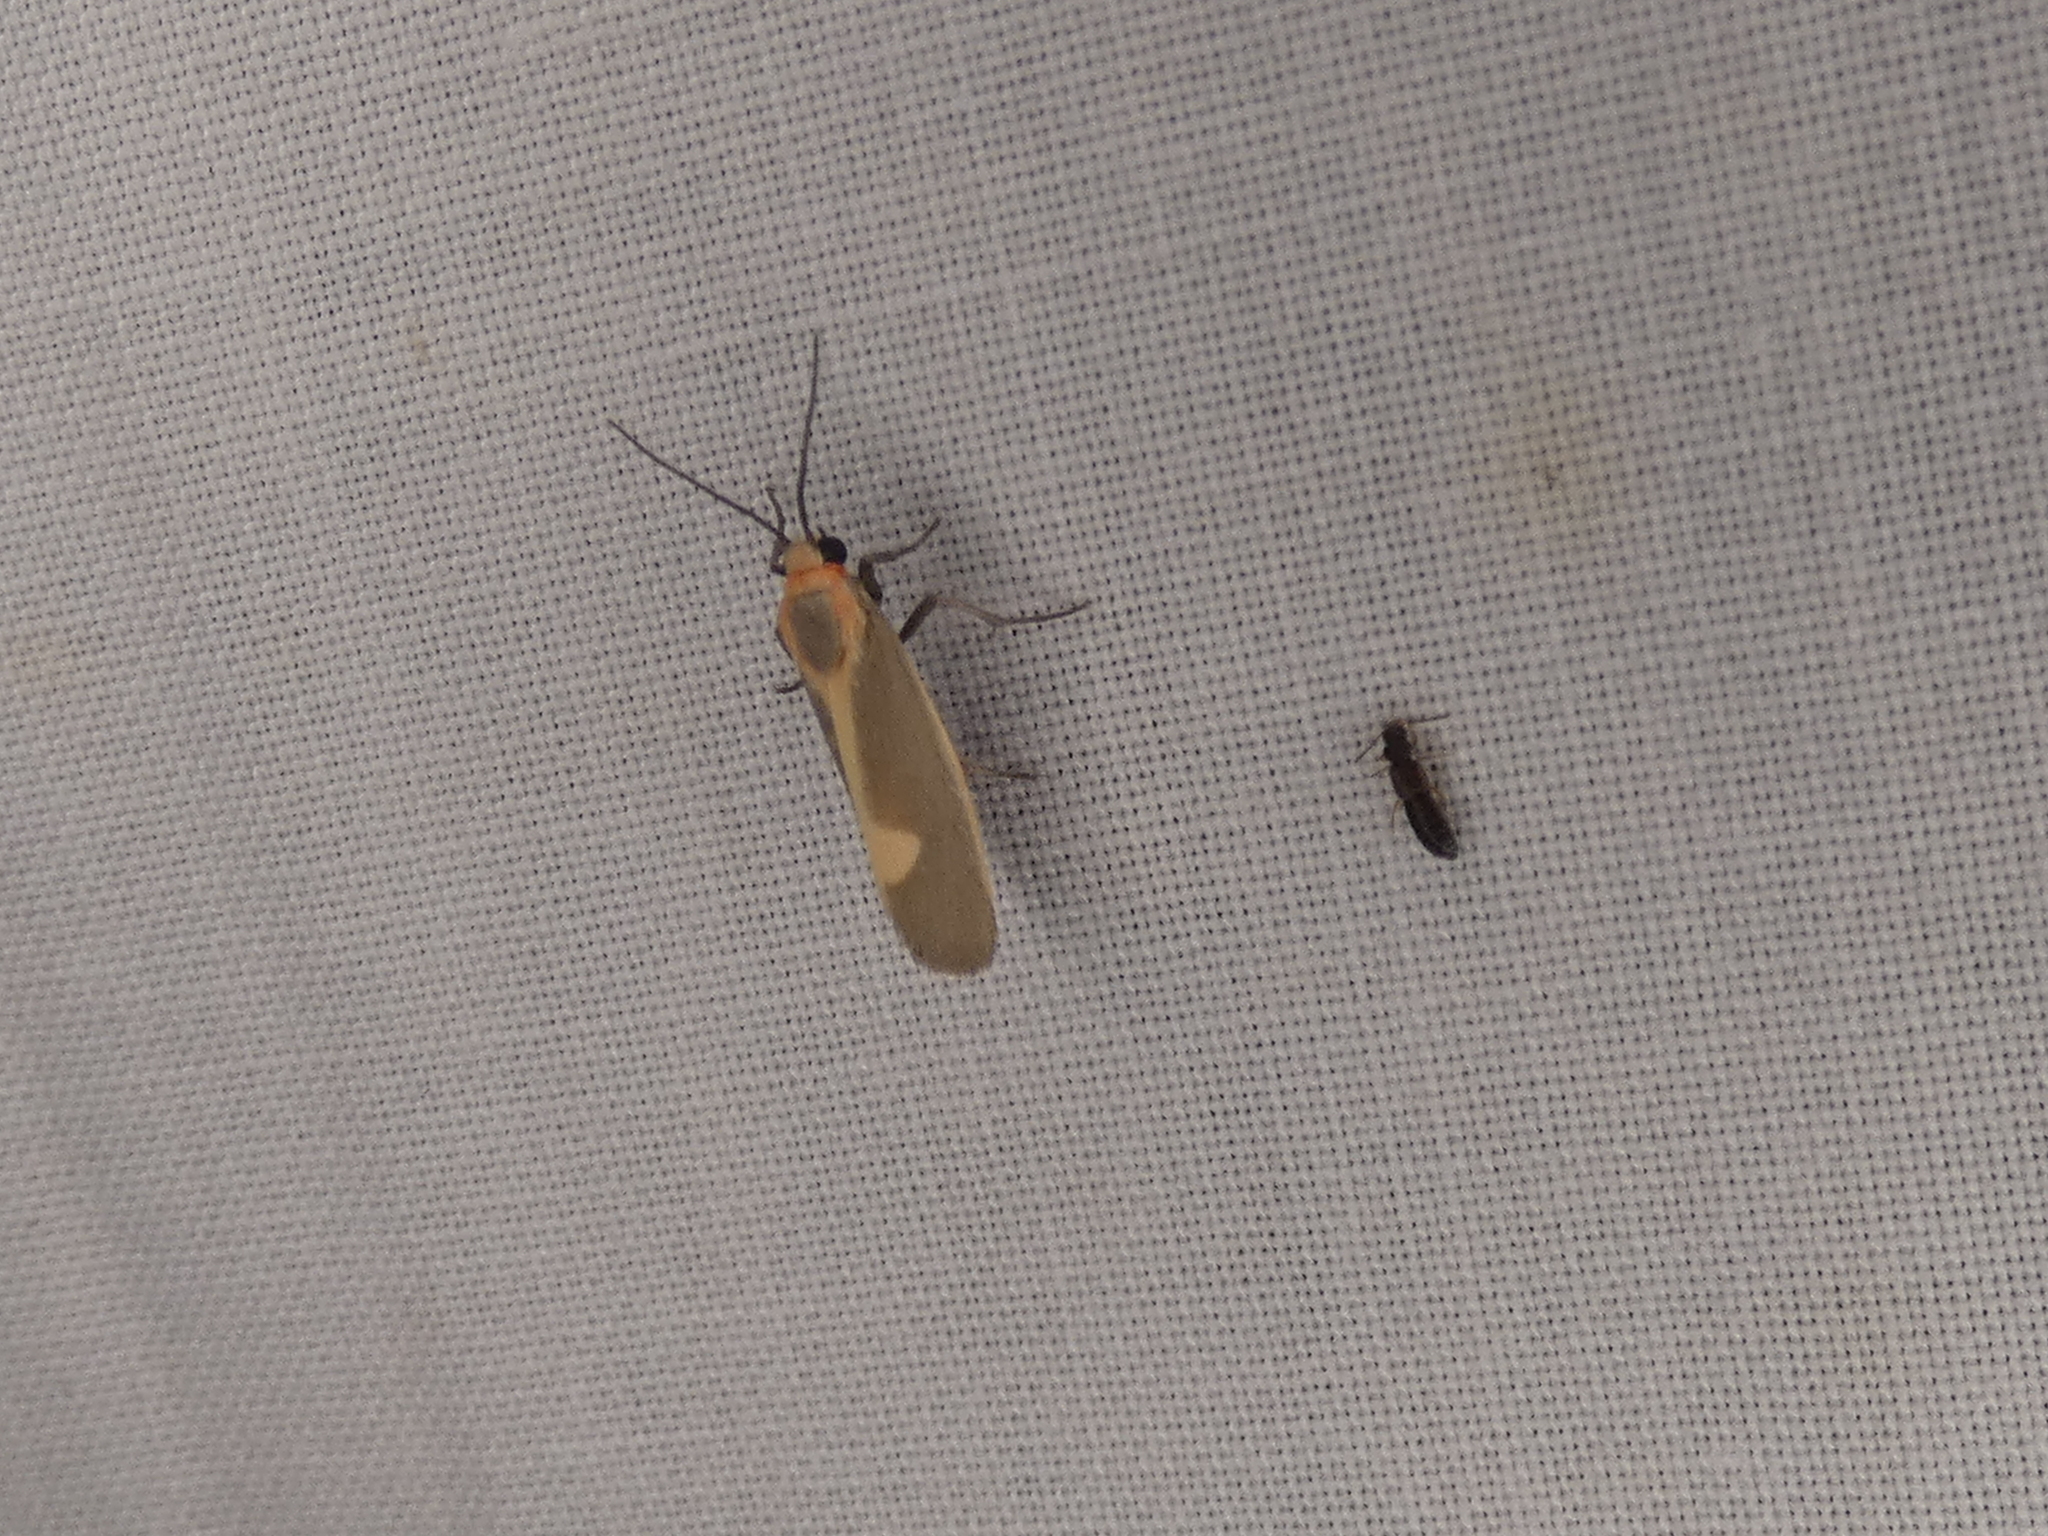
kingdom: Animalia
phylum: Arthropoda
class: Insecta
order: Lepidoptera
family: Erebidae
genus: Cisthene
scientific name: Cisthene plumbea
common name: Lead colored lichen moth
